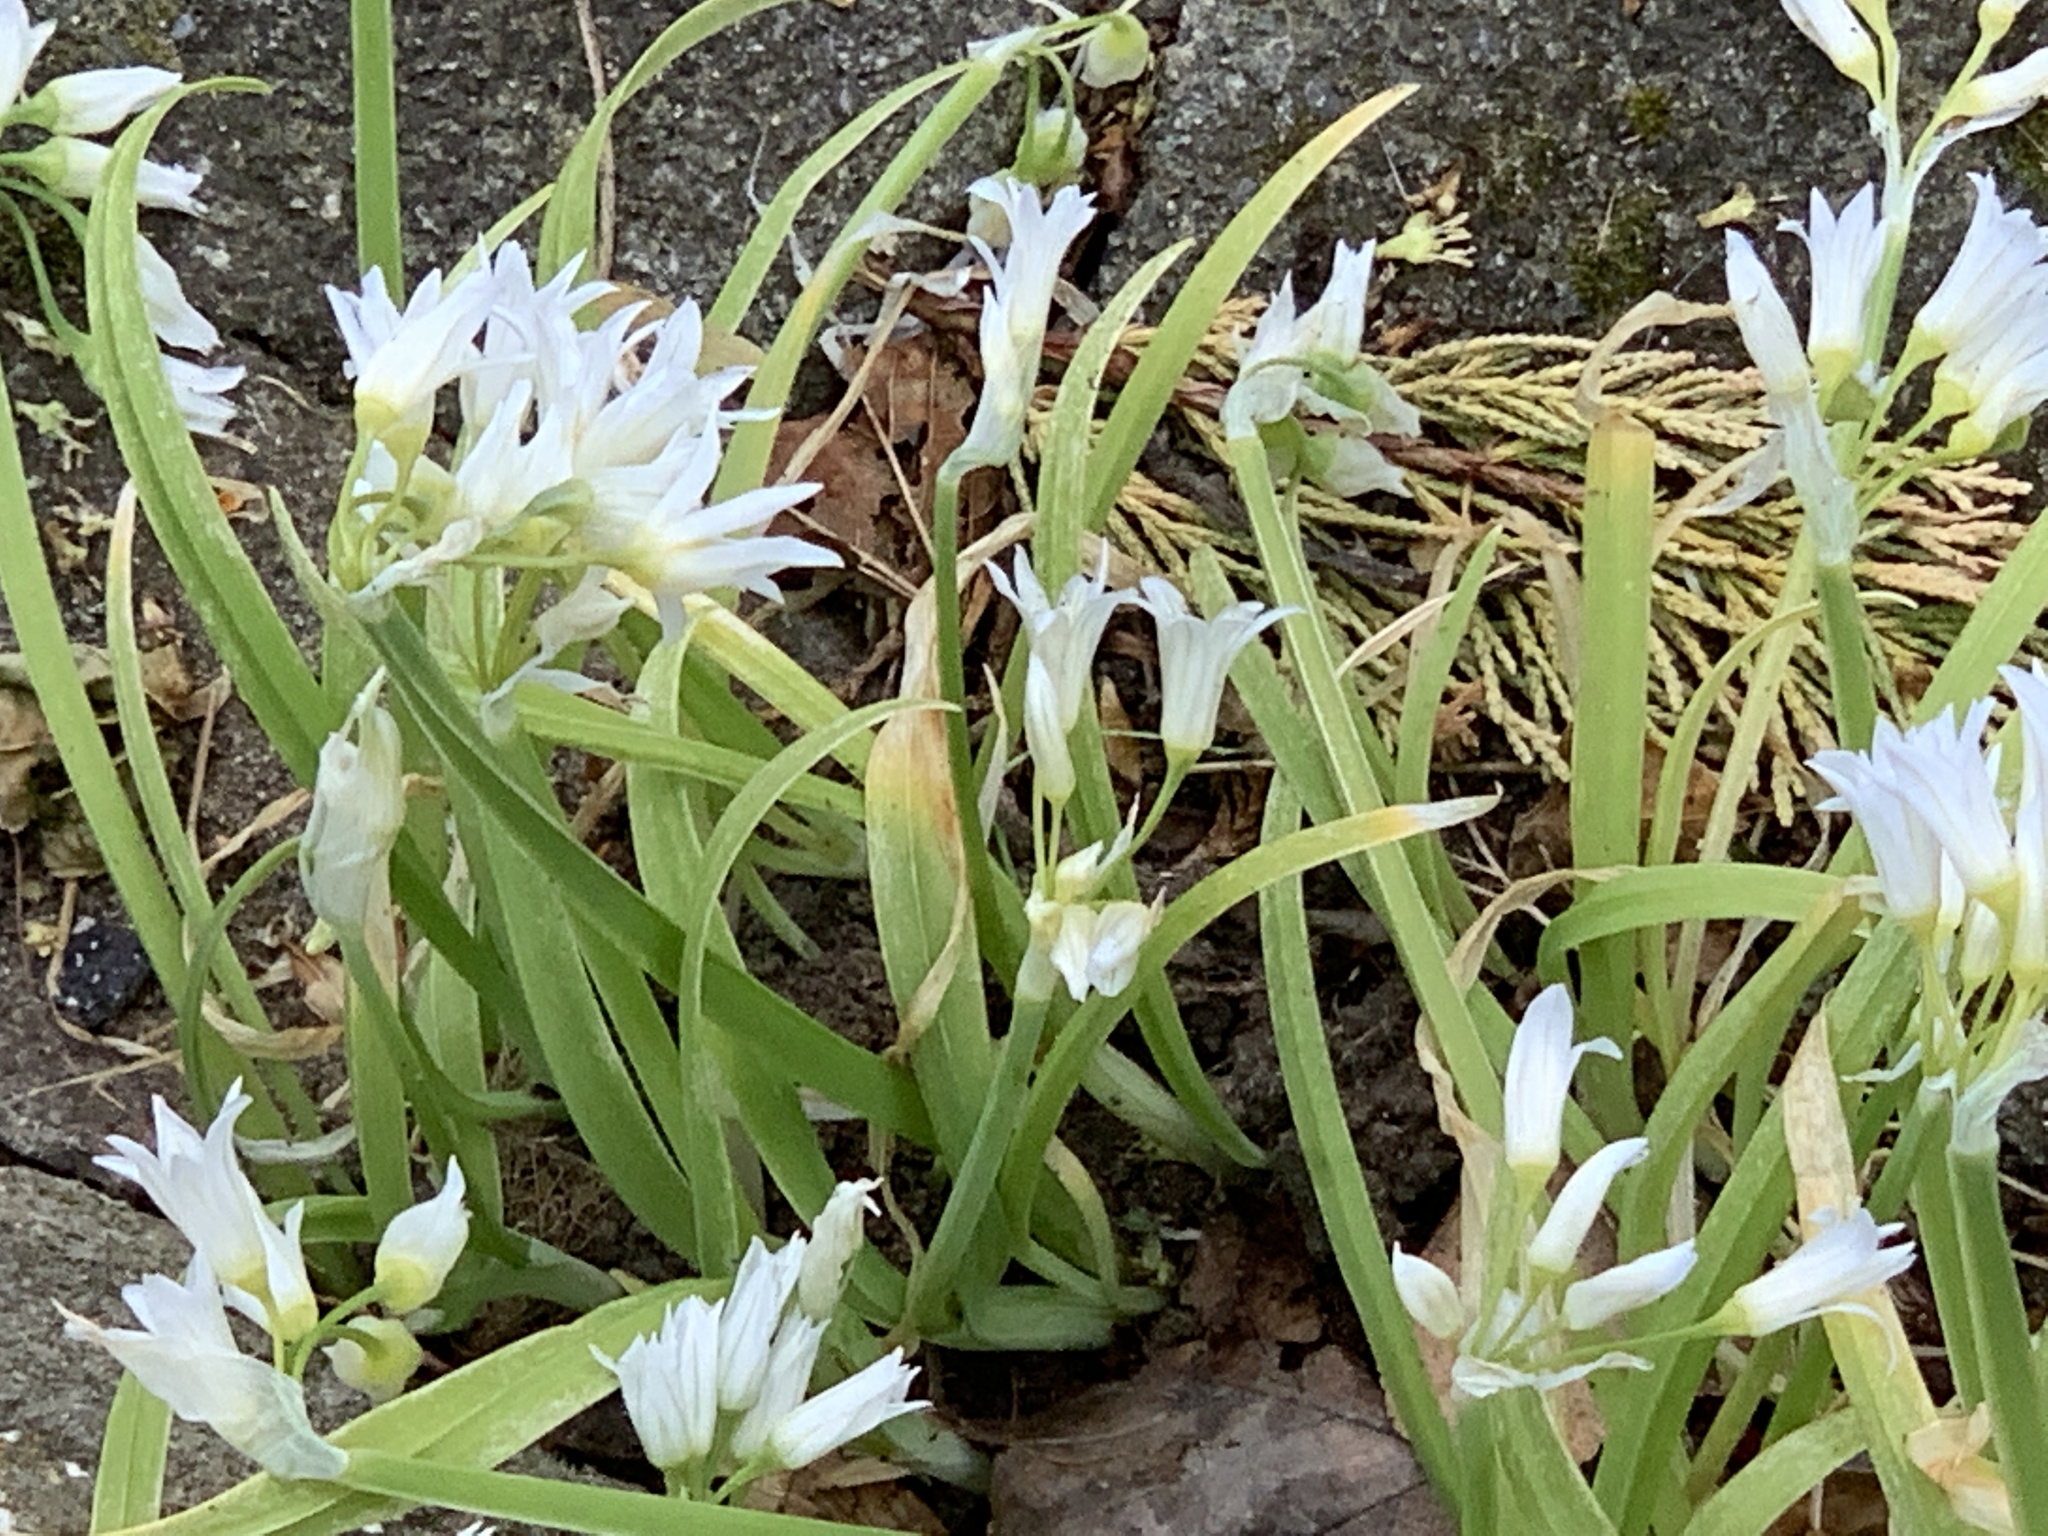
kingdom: Plantae
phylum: Tracheophyta
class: Liliopsida
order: Asparagales
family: Amaryllidaceae
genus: Allium
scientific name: Allium triquetrum
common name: Three-cornered garlic
